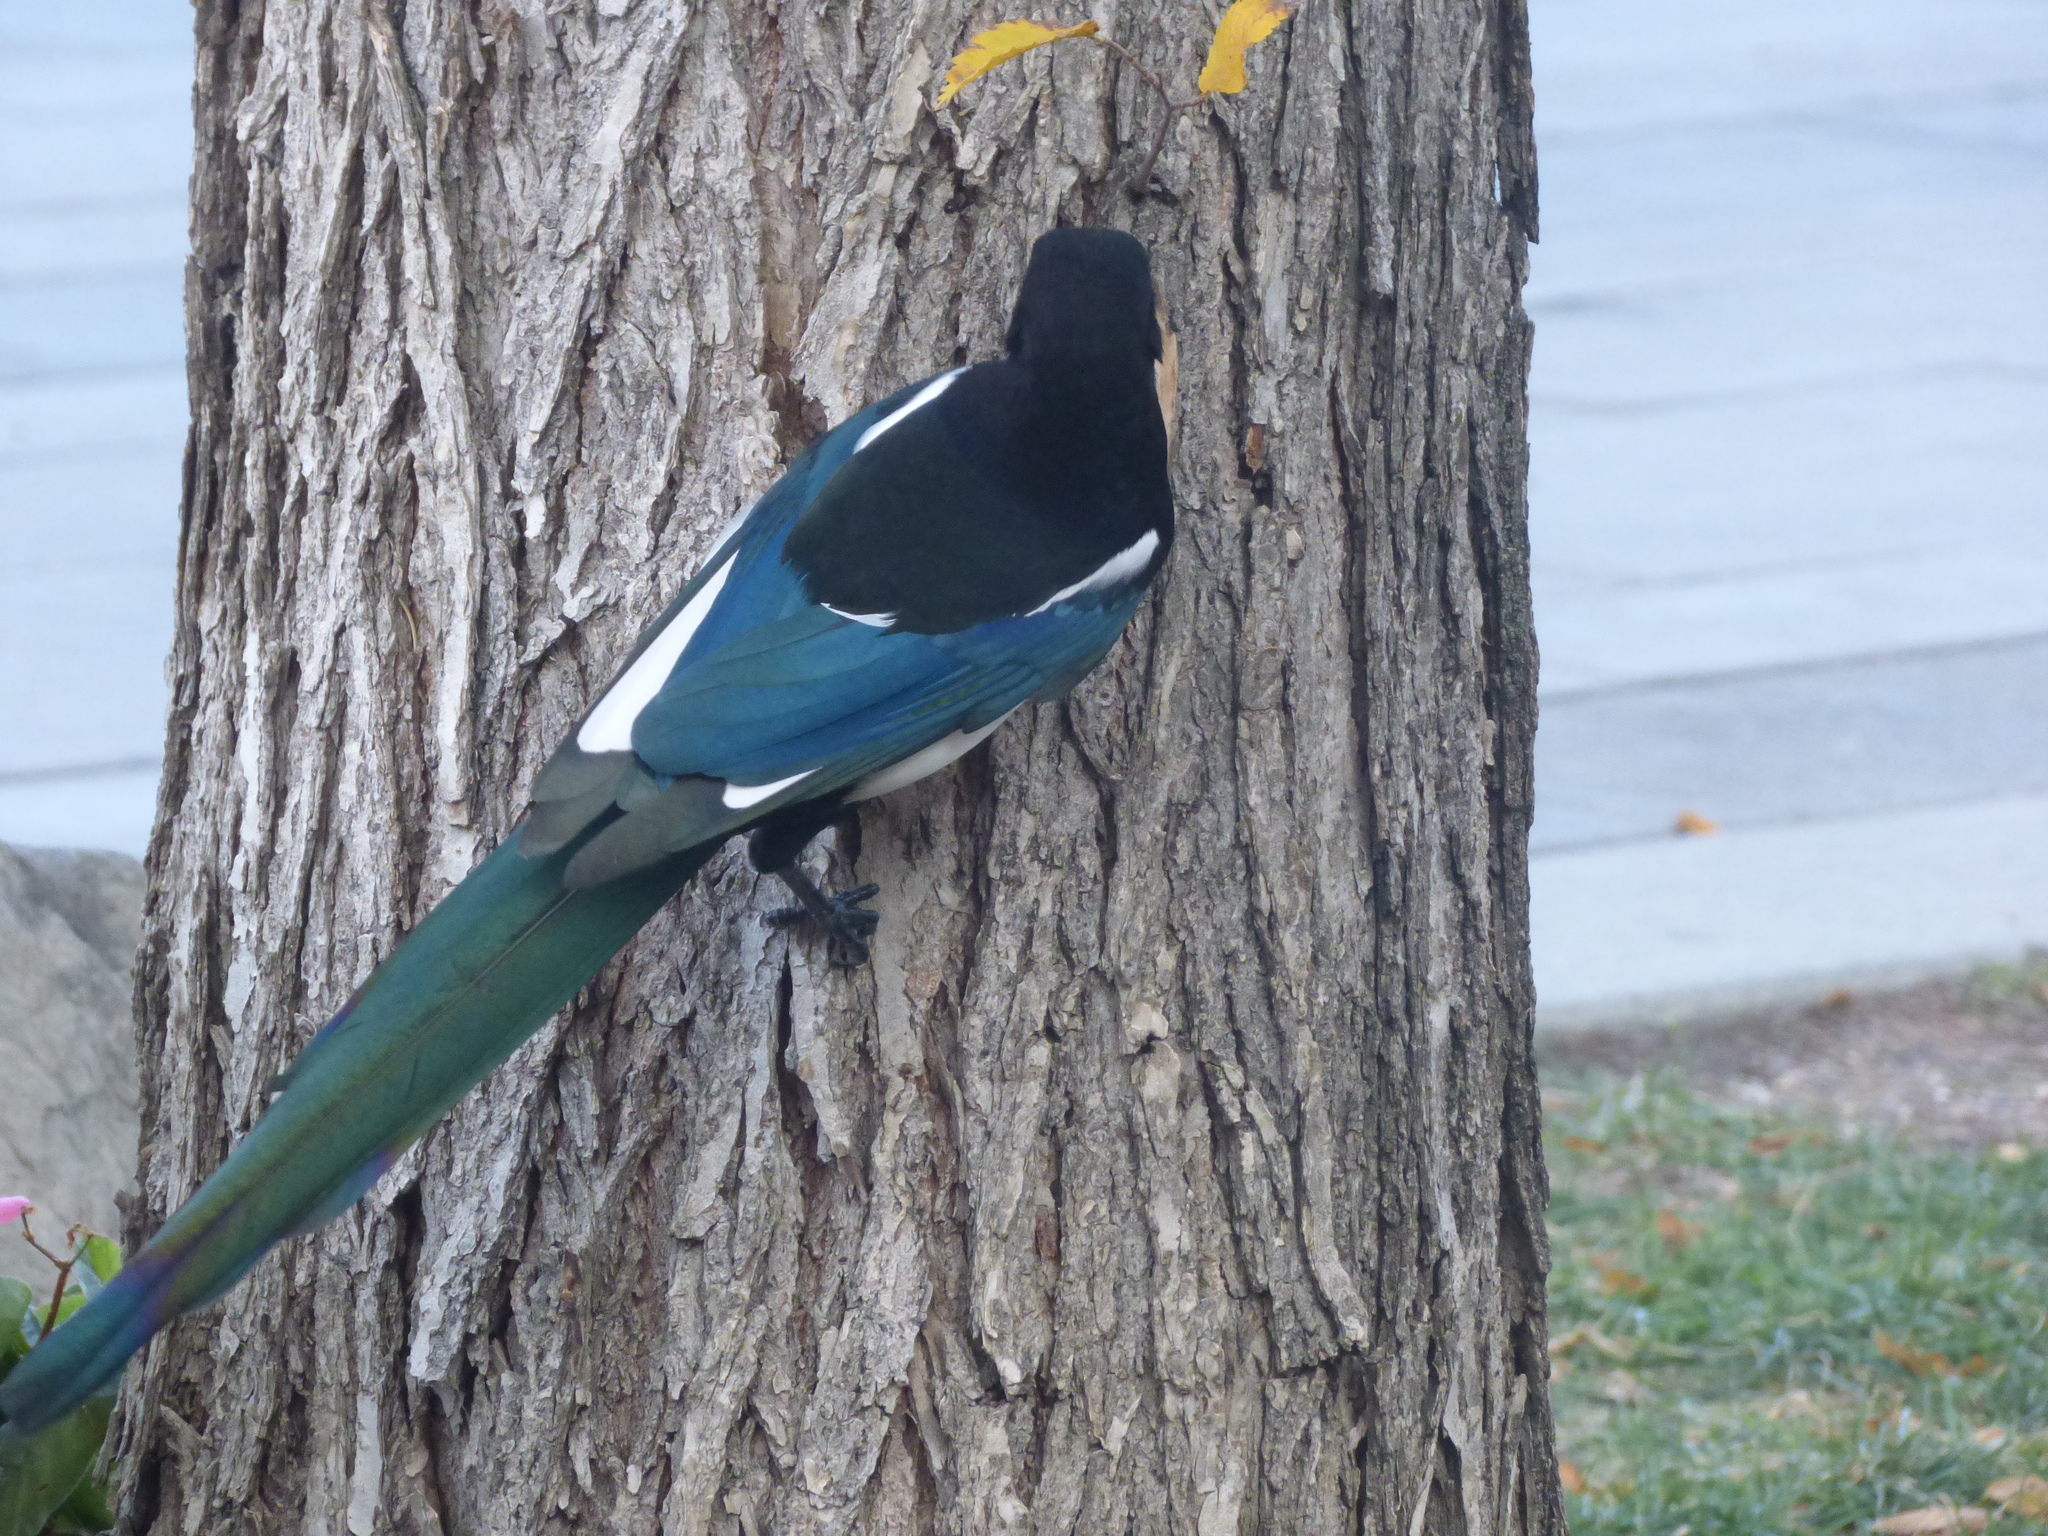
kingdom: Animalia
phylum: Chordata
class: Aves
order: Passeriformes
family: Corvidae
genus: Pica
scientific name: Pica hudsonia
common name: Black-billed magpie
